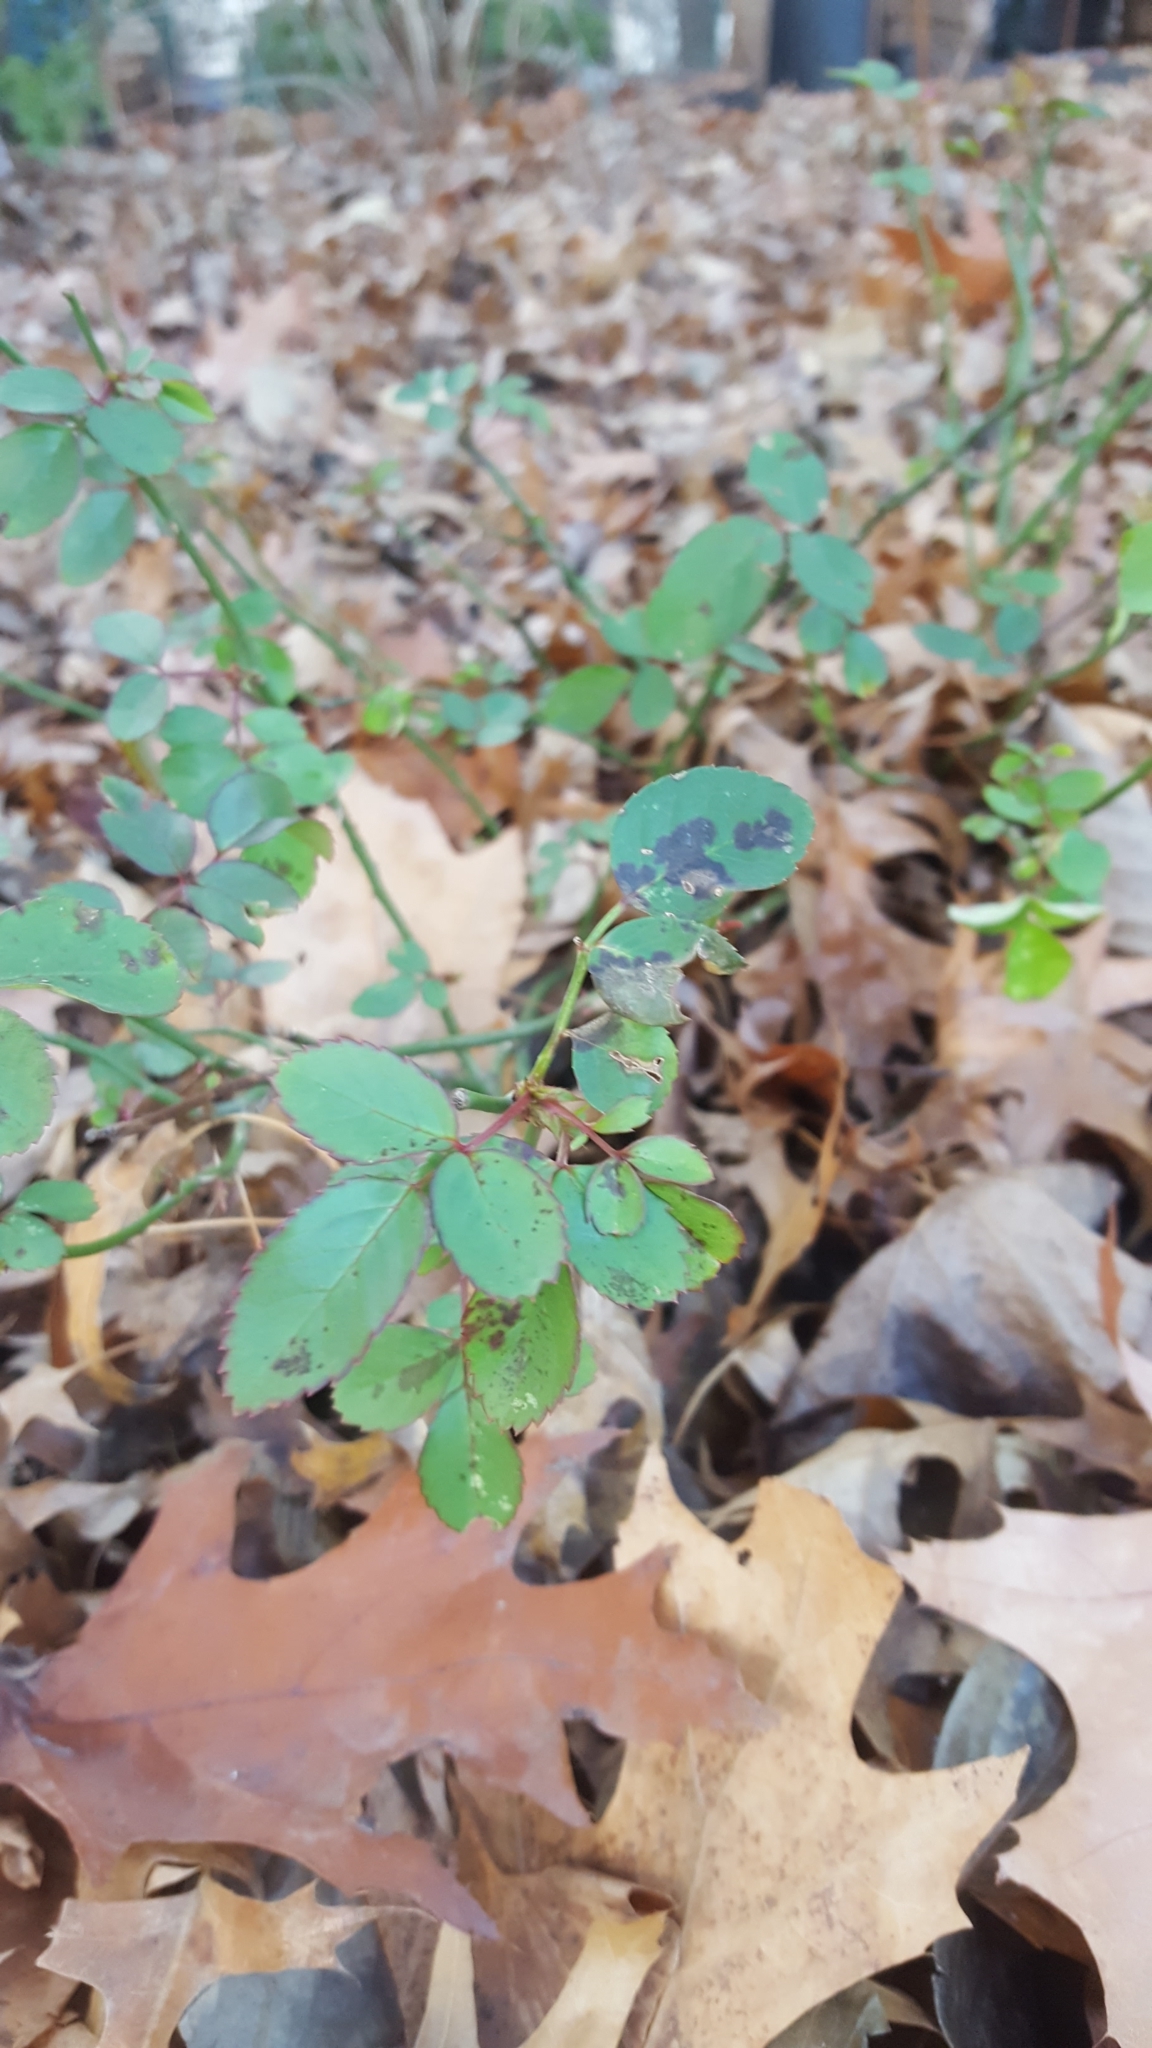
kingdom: Fungi
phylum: Ascomycota
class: Leotiomycetes
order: Helotiales
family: Drepanopezizaceae
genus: Diplocarpon
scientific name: Diplocarpon rosae
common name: Rose black-spot
